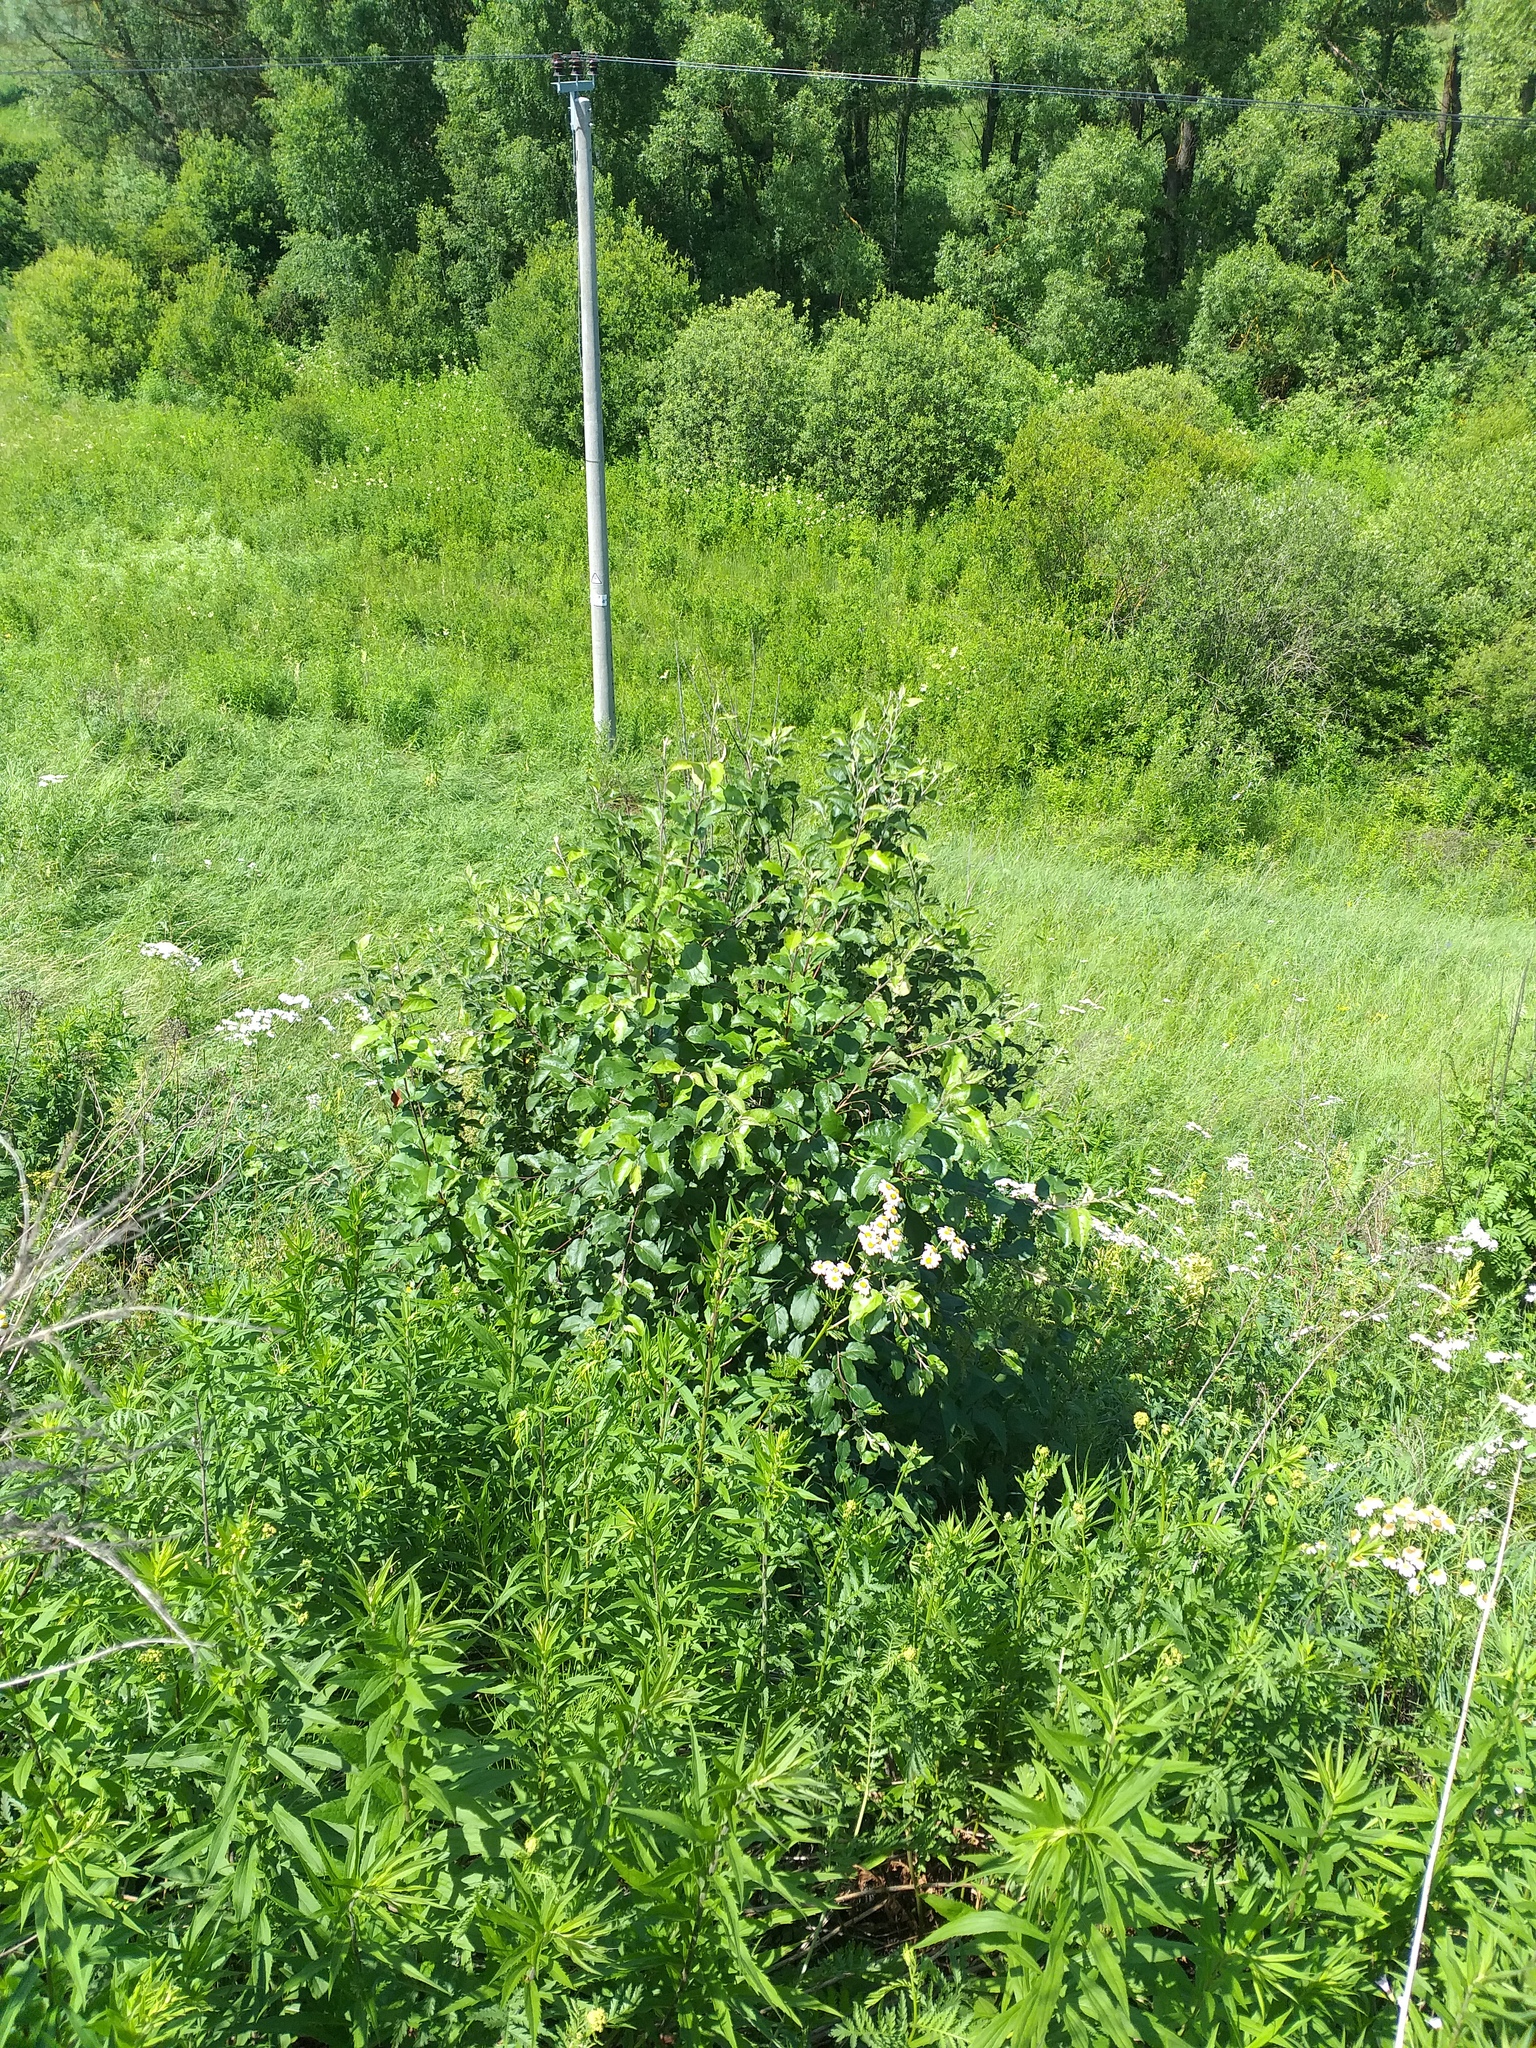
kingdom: Plantae
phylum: Tracheophyta
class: Magnoliopsida
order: Rosales
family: Rosaceae
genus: Malus
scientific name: Malus domestica
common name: Apple
